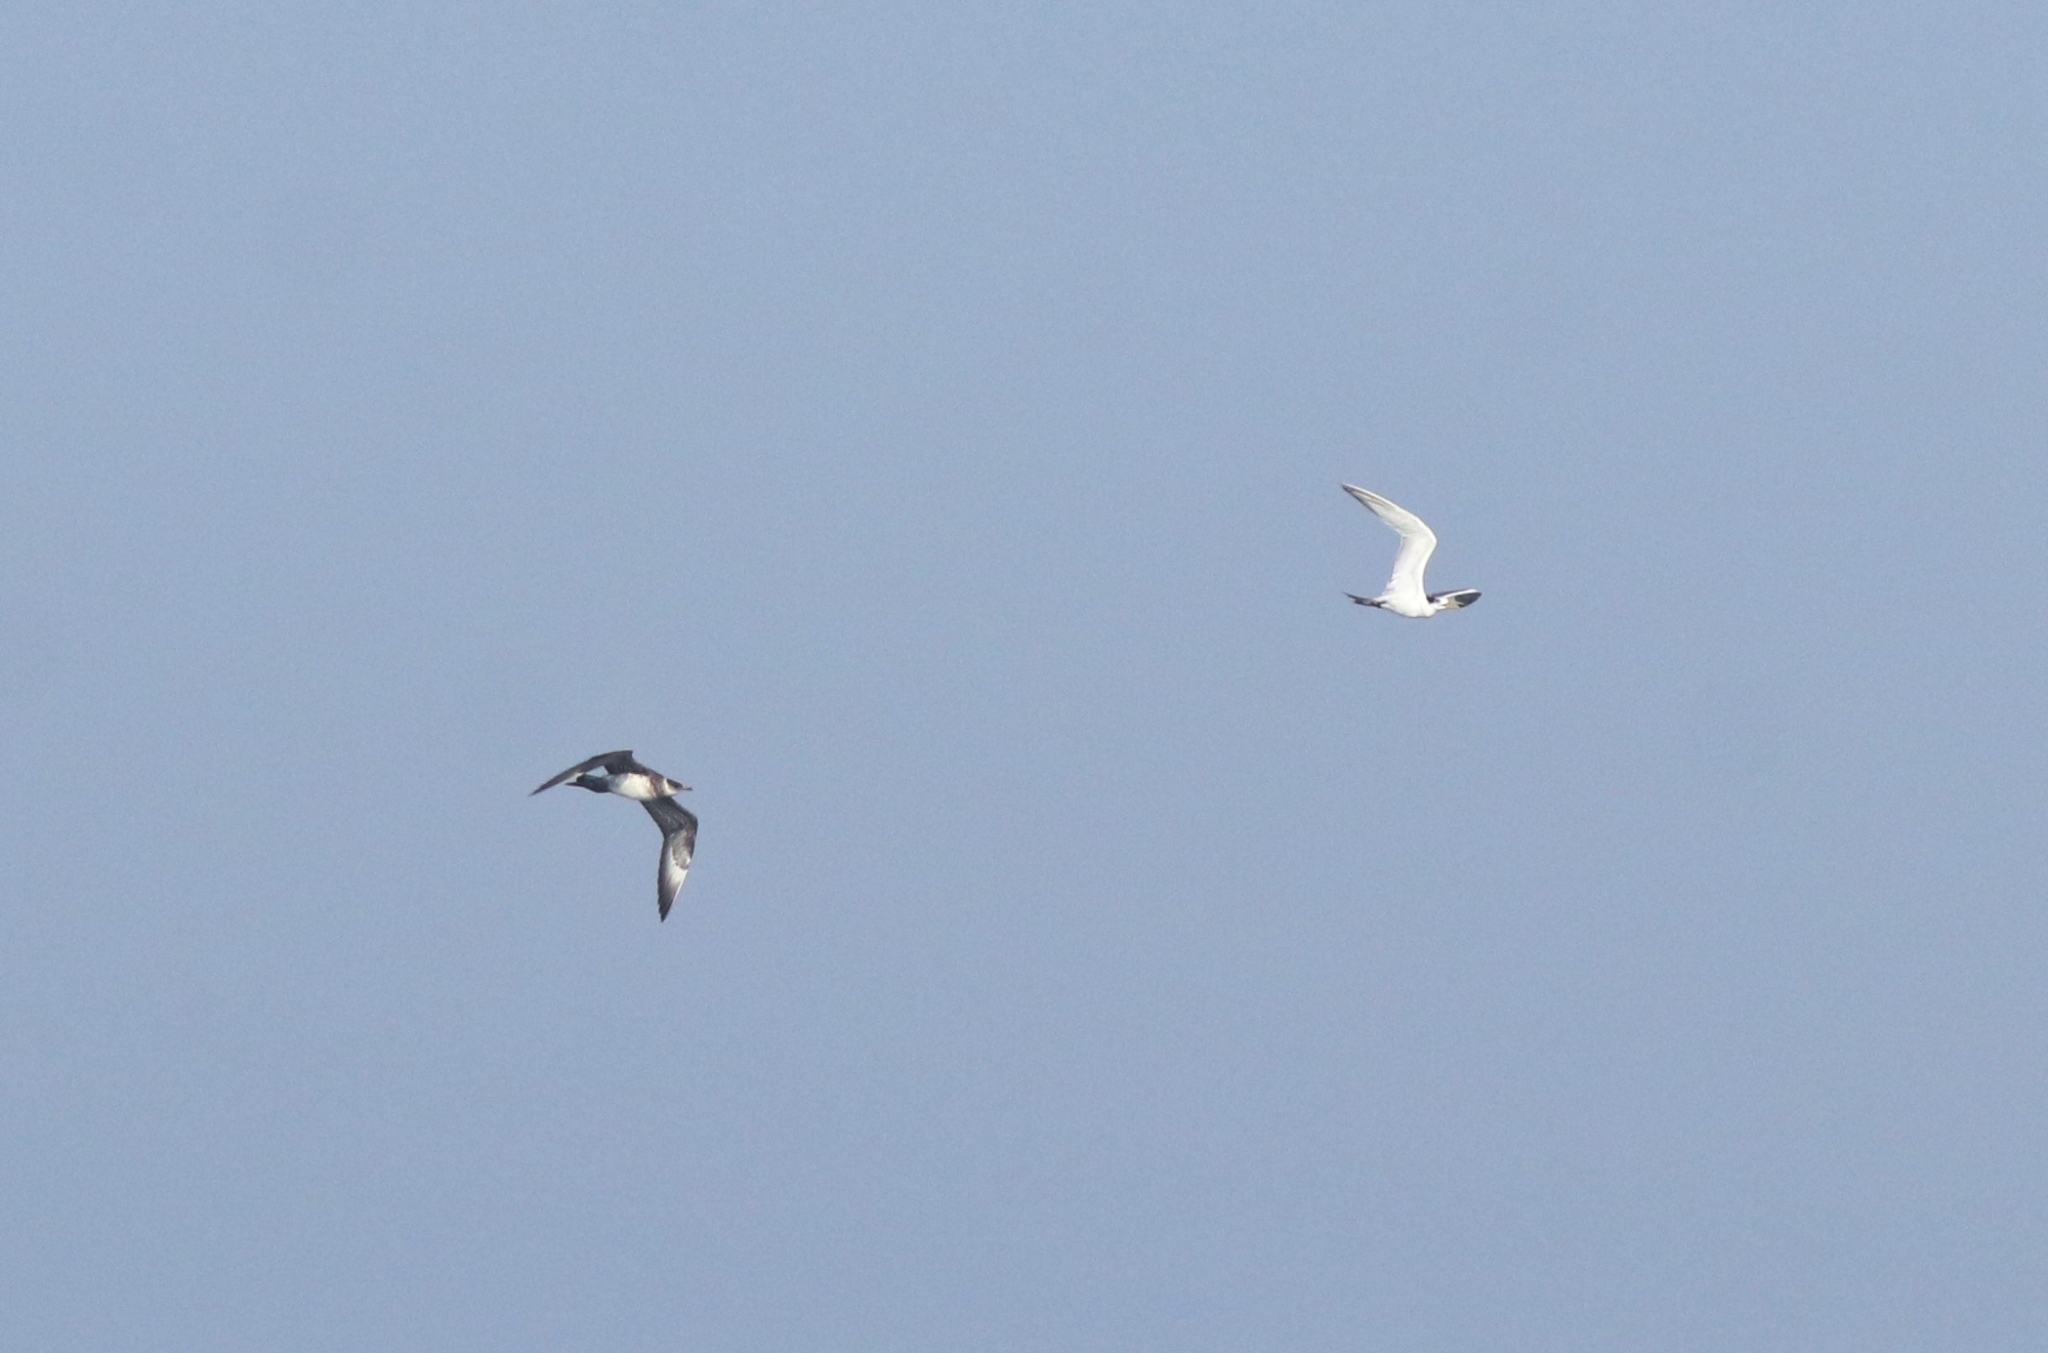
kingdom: Animalia
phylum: Chordata
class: Aves
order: Charadriiformes
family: Stercorariidae
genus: Stercorarius
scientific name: Stercorarius parasiticus
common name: Parasitic jaeger
